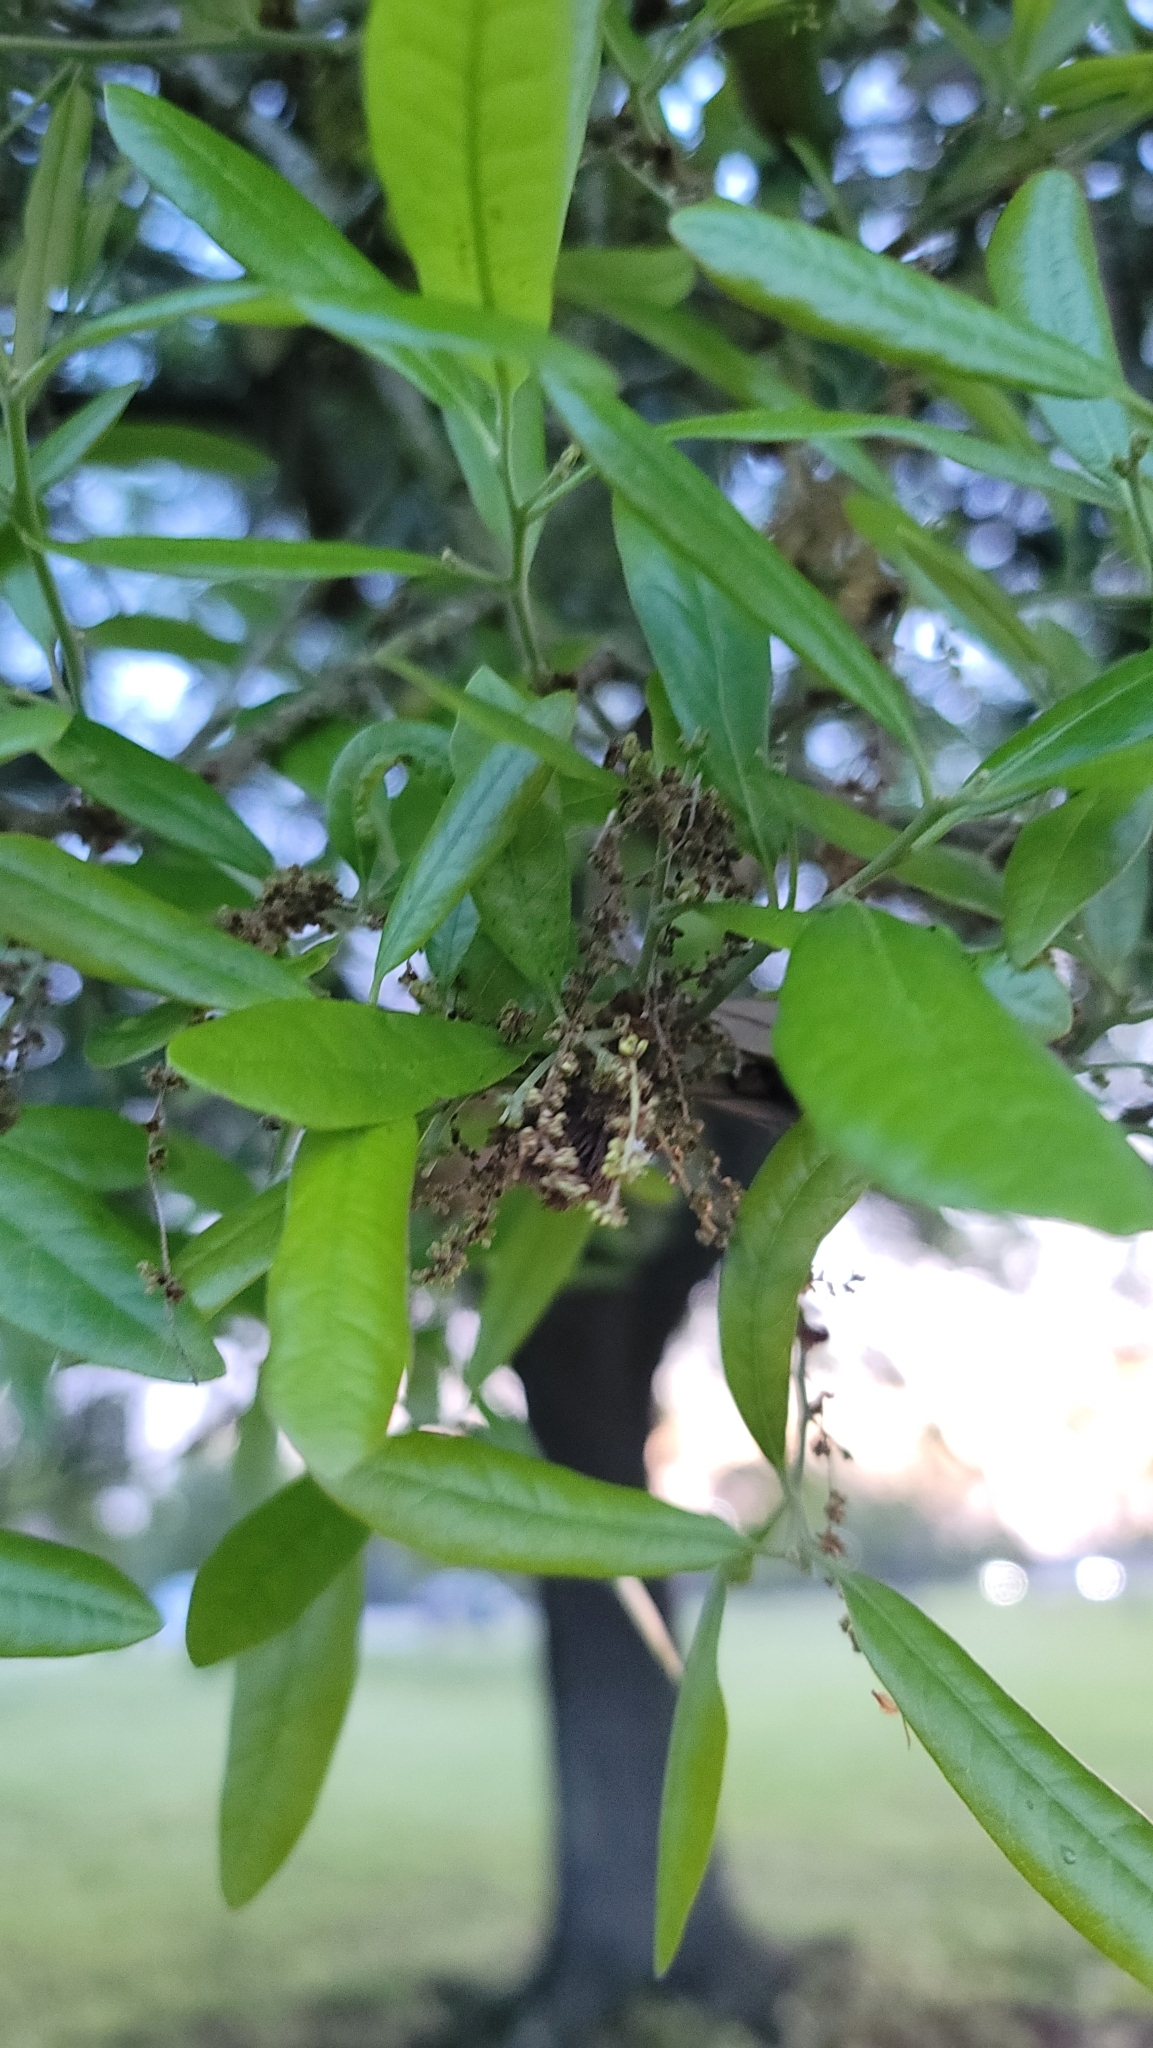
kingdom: Plantae
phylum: Tracheophyta
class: Magnoliopsida
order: Fagales
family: Fagaceae
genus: Quercus
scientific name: Quercus virginiana
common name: Southern live oak
